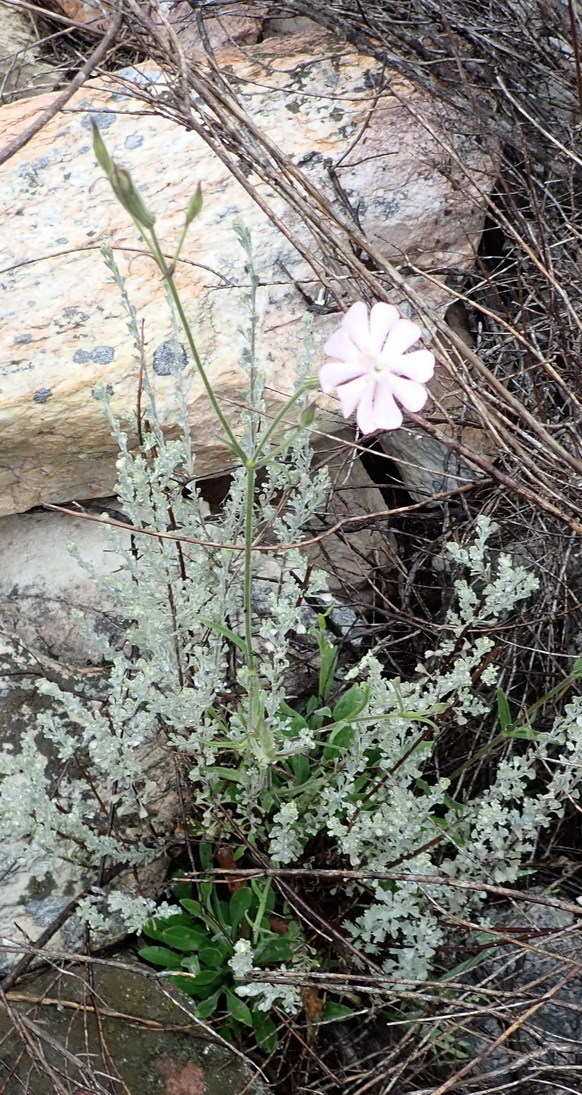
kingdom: Plantae
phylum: Tracheophyta
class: Magnoliopsida
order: Caryophyllales
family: Caryophyllaceae
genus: Silene
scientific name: Silene undulata
